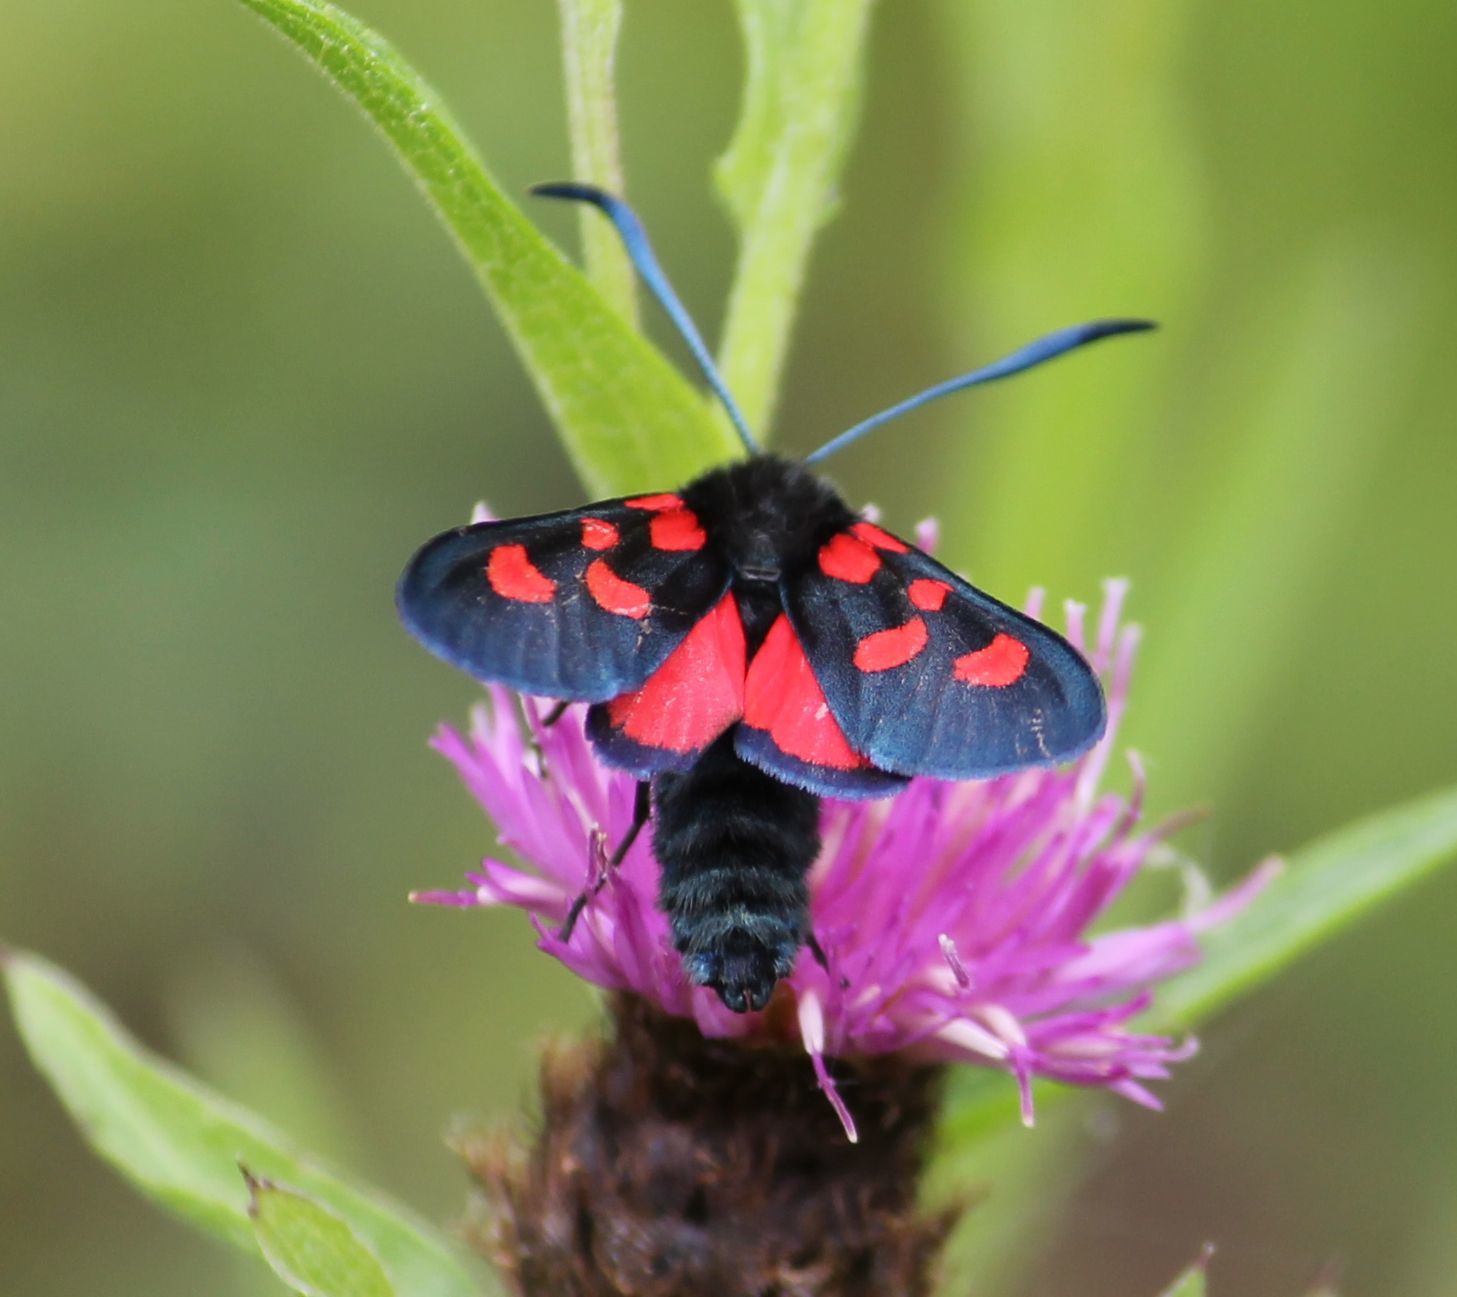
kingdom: Animalia
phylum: Arthropoda
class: Insecta
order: Lepidoptera
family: Zygaenidae
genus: Zygaena
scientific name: Zygaena lonicerae
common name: Narrow-bordered five-spot burnet
